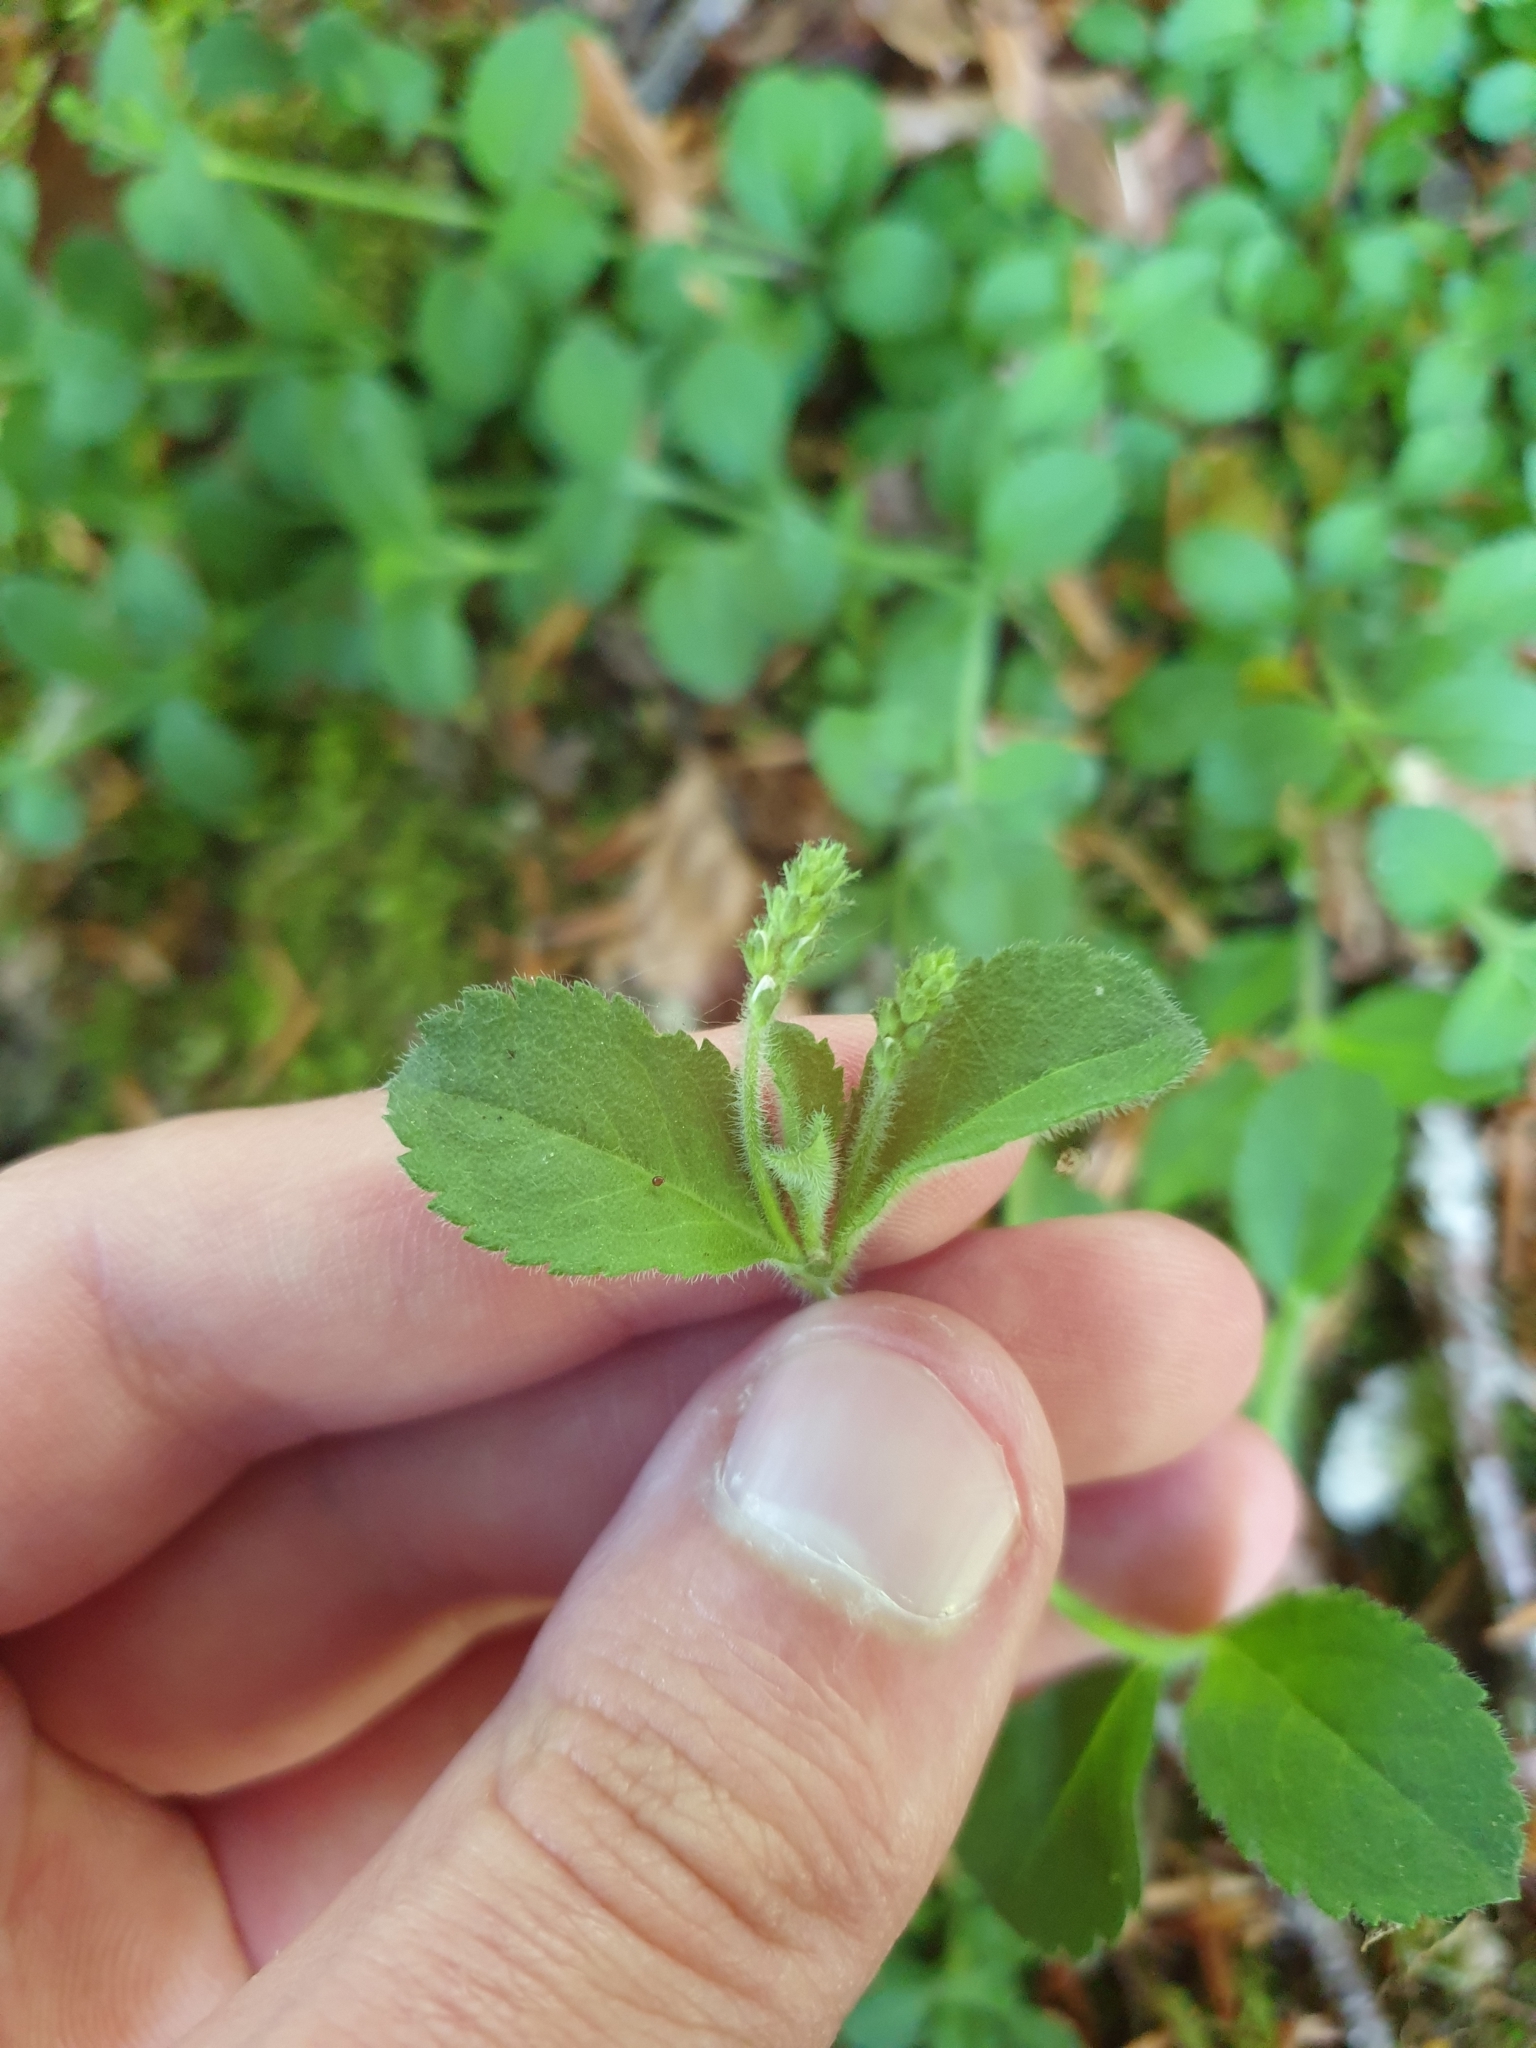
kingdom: Plantae
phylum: Tracheophyta
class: Magnoliopsida
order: Lamiales
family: Plantaginaceae
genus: Veronica
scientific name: Veronica officinalis
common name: Common speedwell
